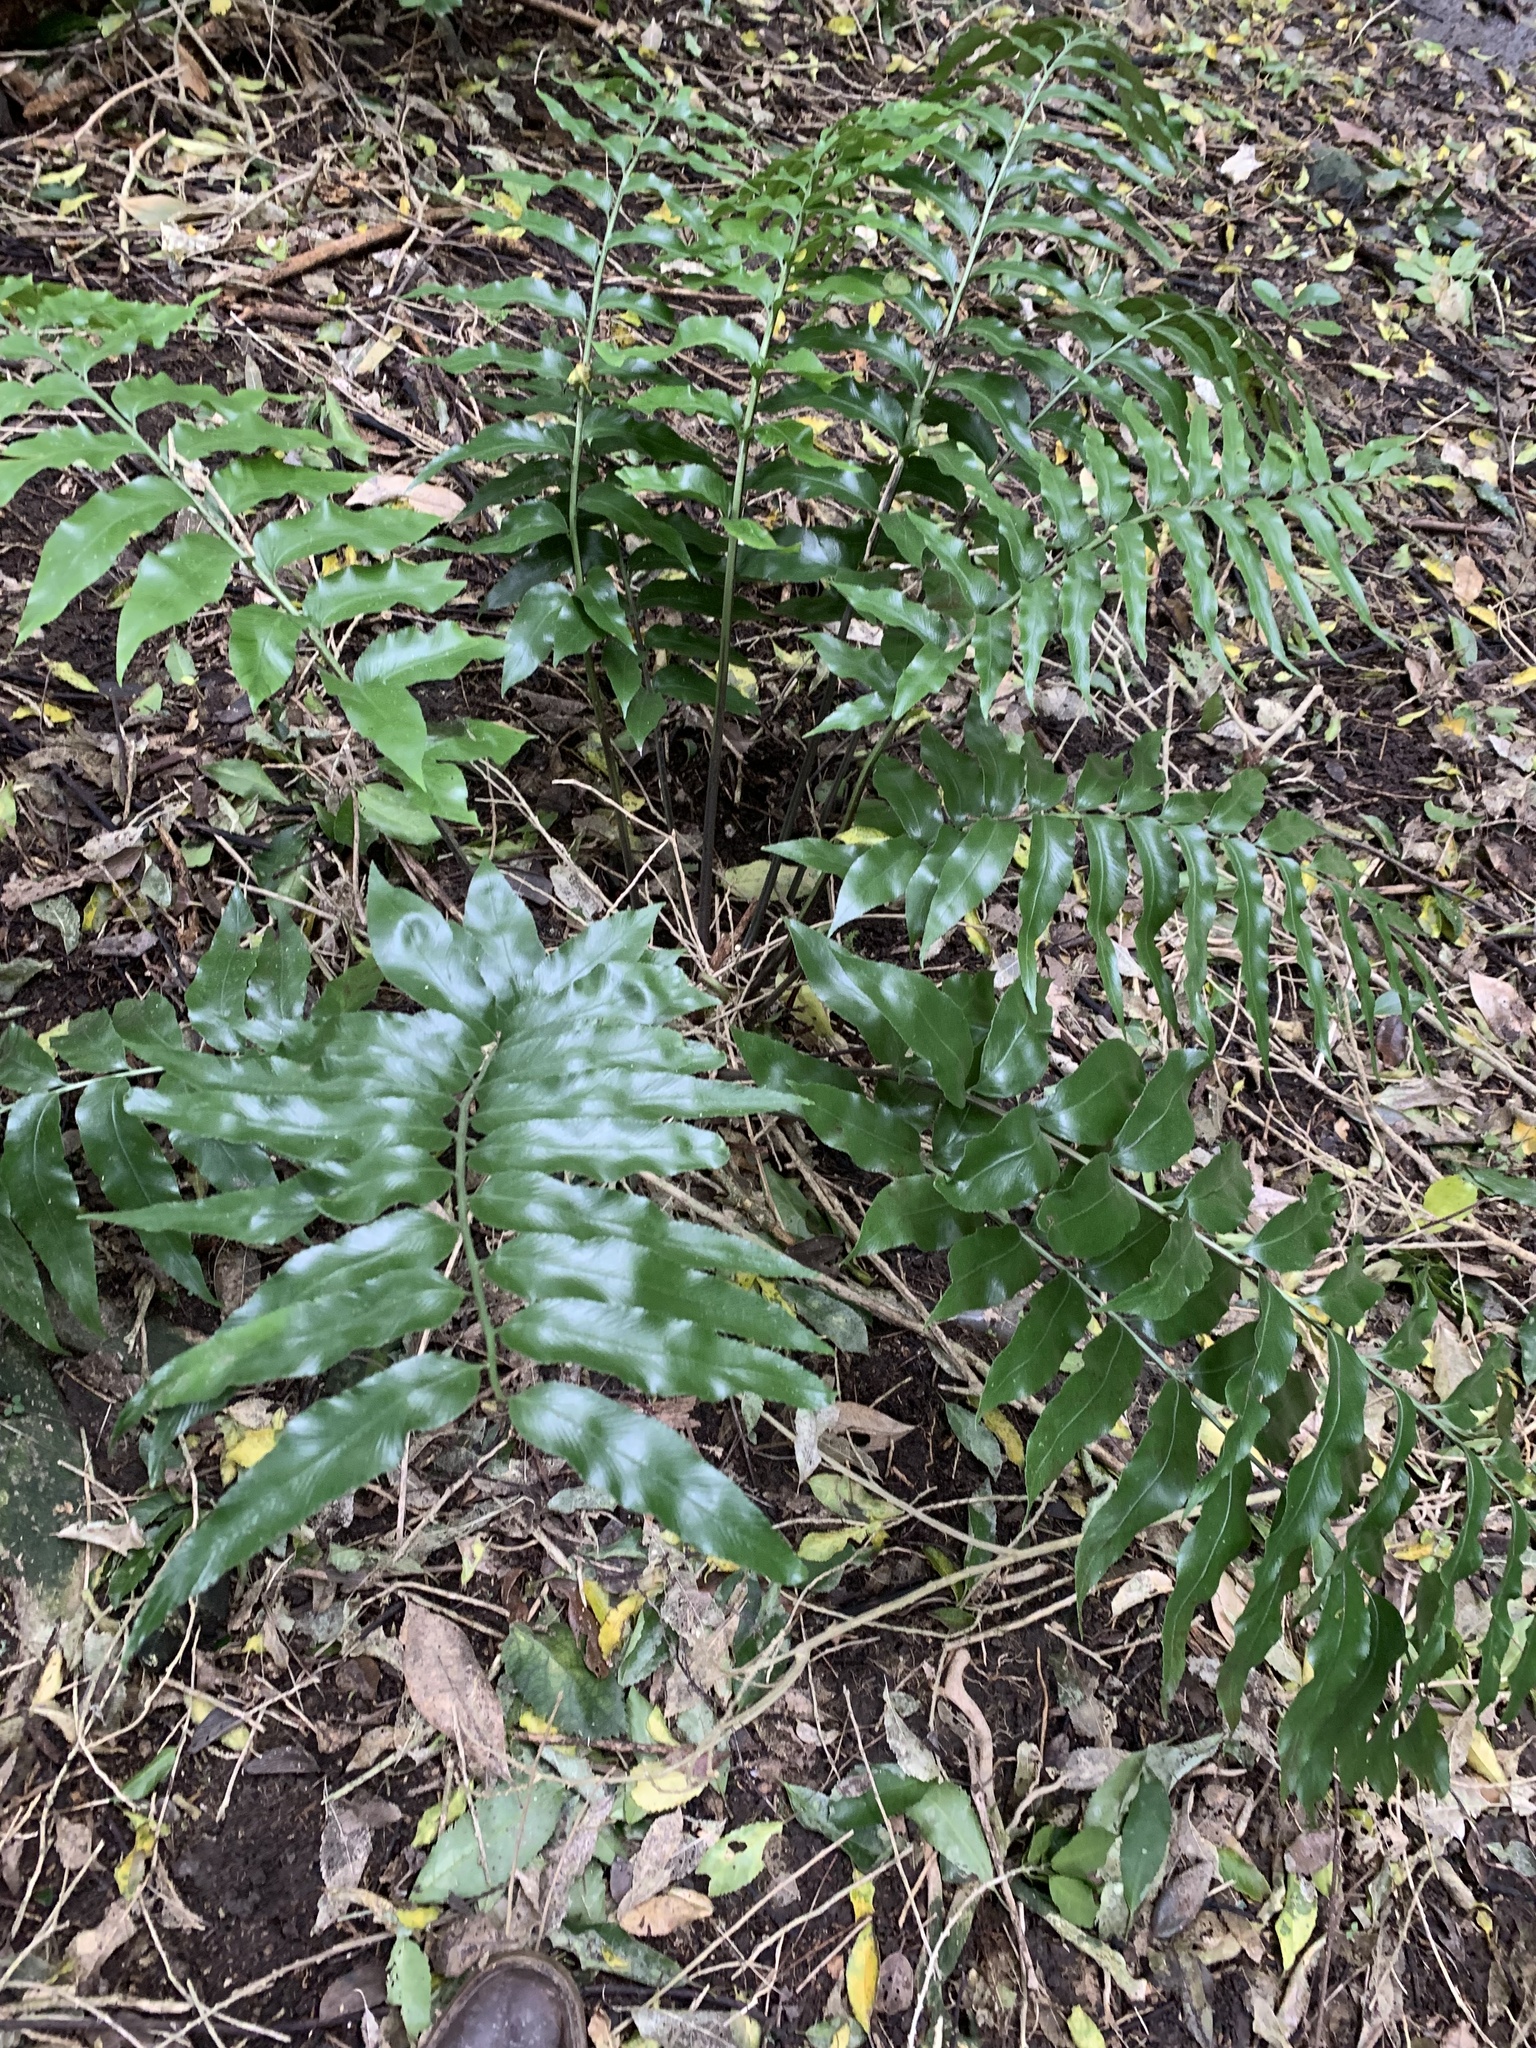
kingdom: Plantae
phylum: Tracheophyta
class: Polypodiopsida
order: Polypodiales
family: Aspleniaceae
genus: Asplenium
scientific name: Asplenium oblongifolium
